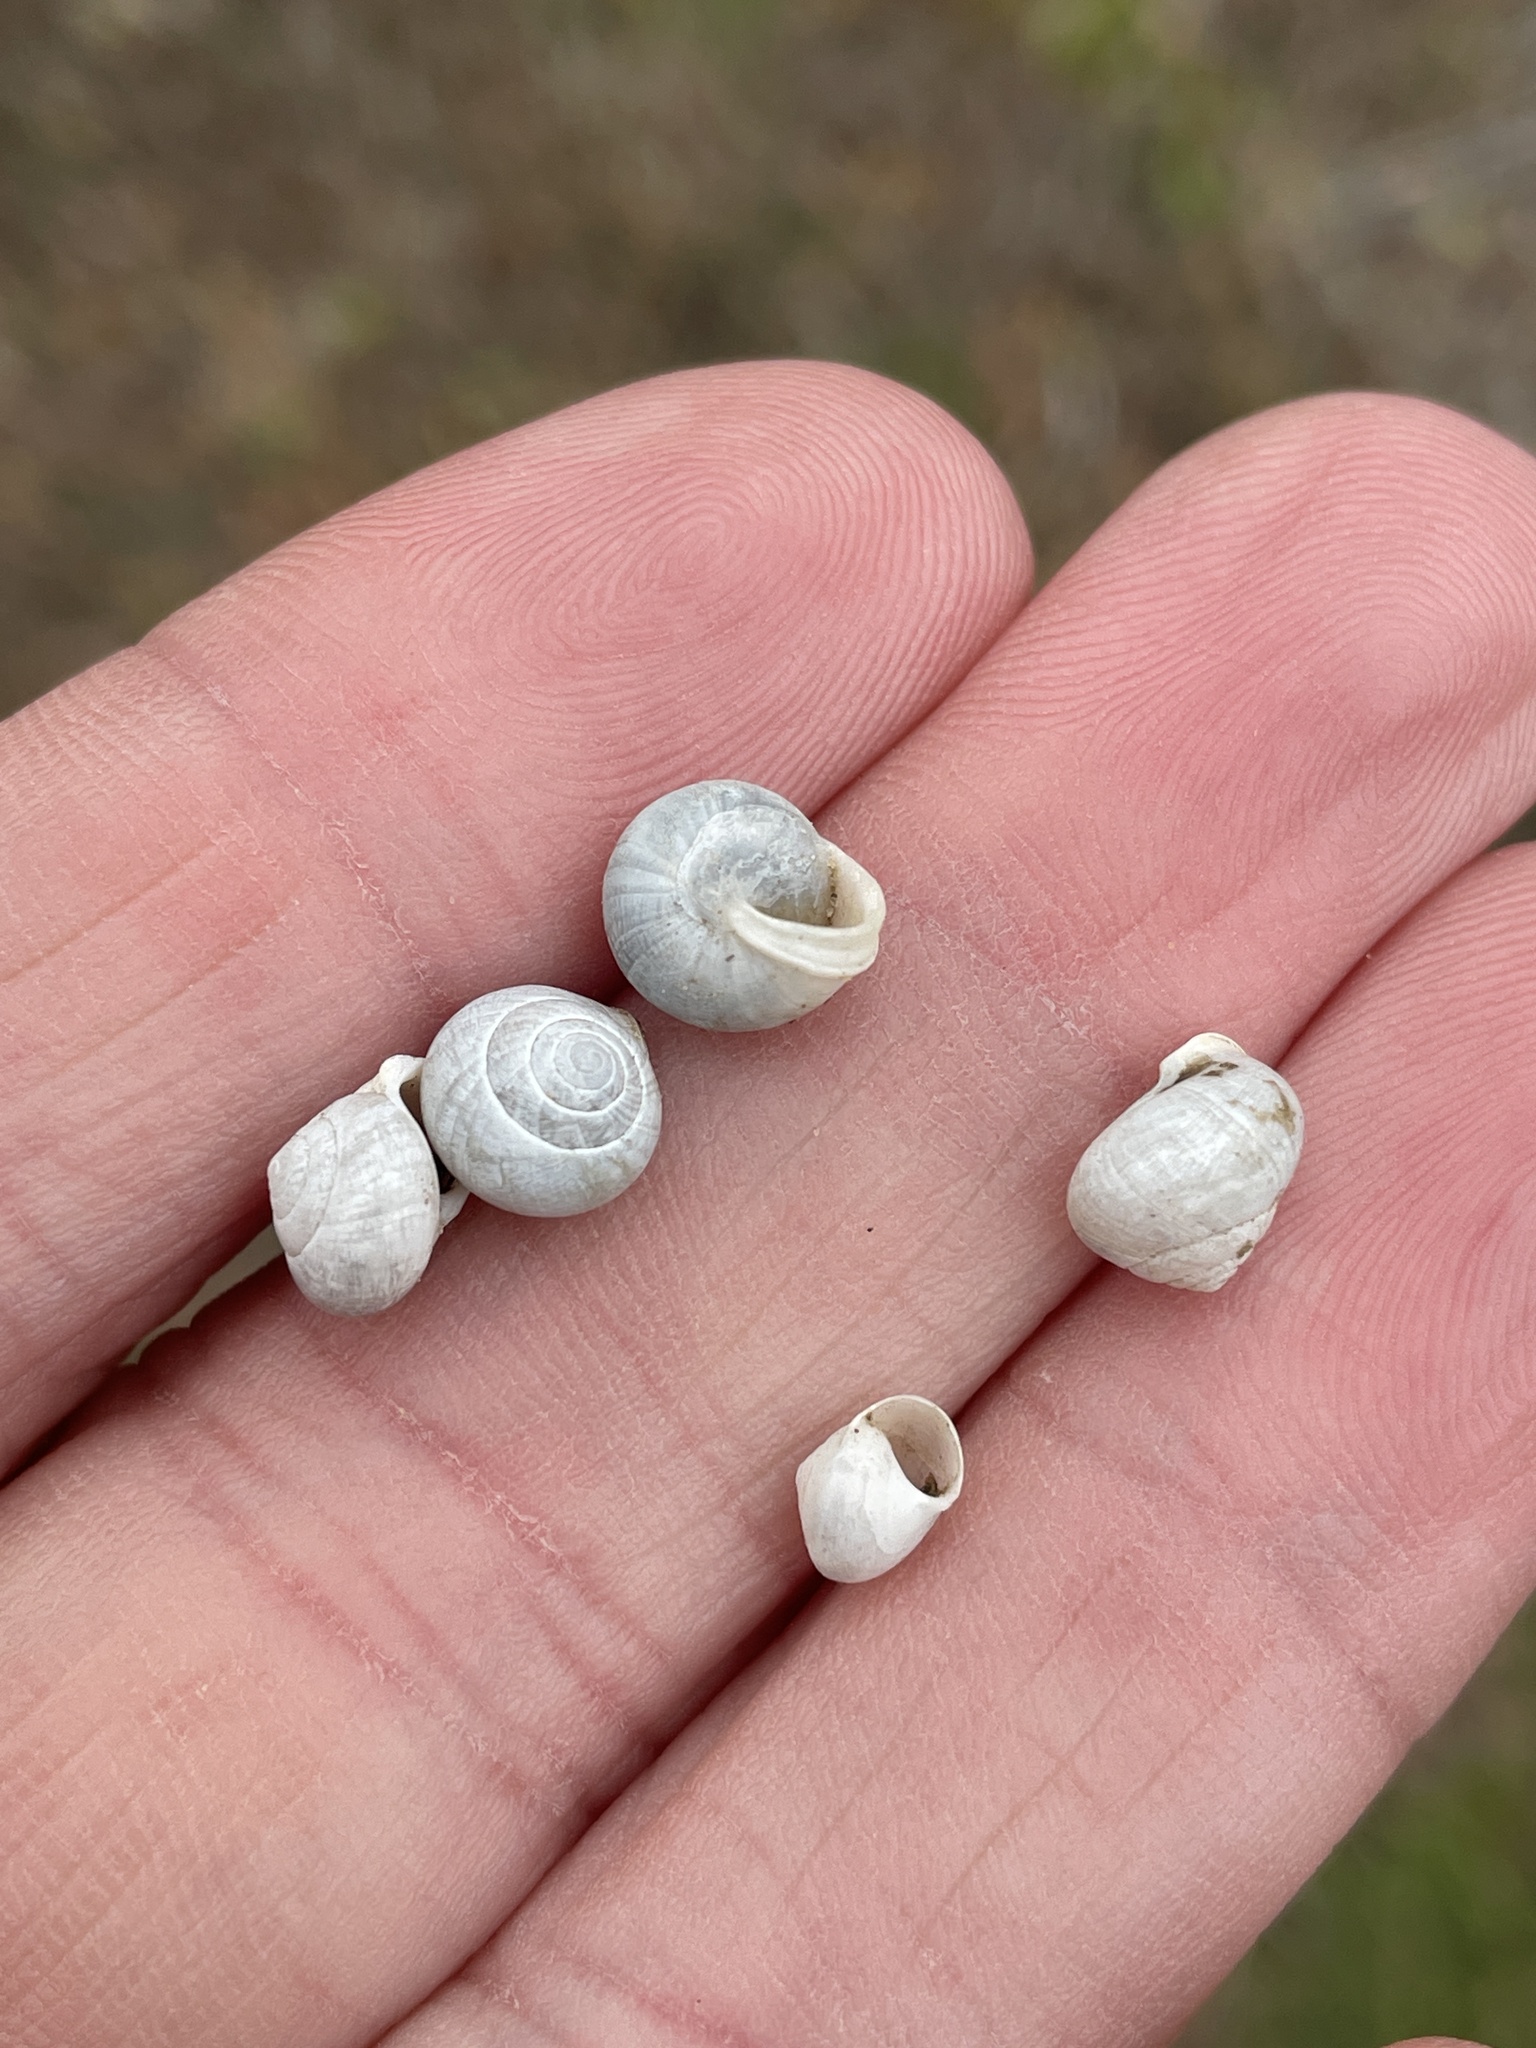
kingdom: Animalia
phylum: Mollusca
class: Gastropoda
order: Cycloneritida
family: Helicinidae
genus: Helicina
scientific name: Helicina orbiculata
